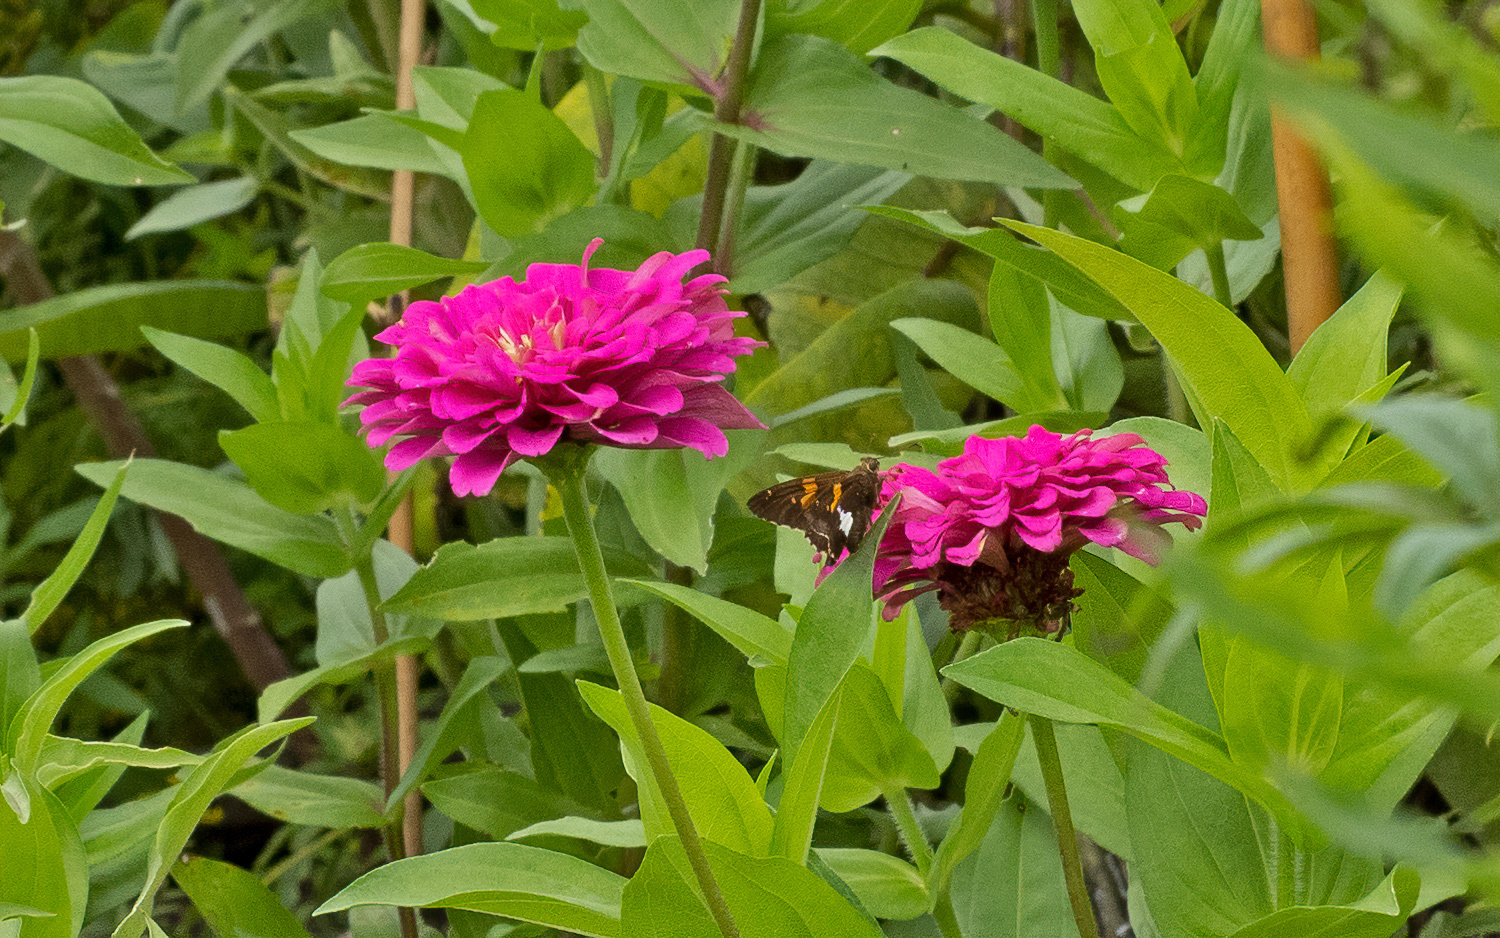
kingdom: Animalia
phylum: Arthropoda
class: Insecta
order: Lepidoptera
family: Hesperiidae
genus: Epargyreus
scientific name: Epargyreus clarus
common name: Silver-spotted skipper
